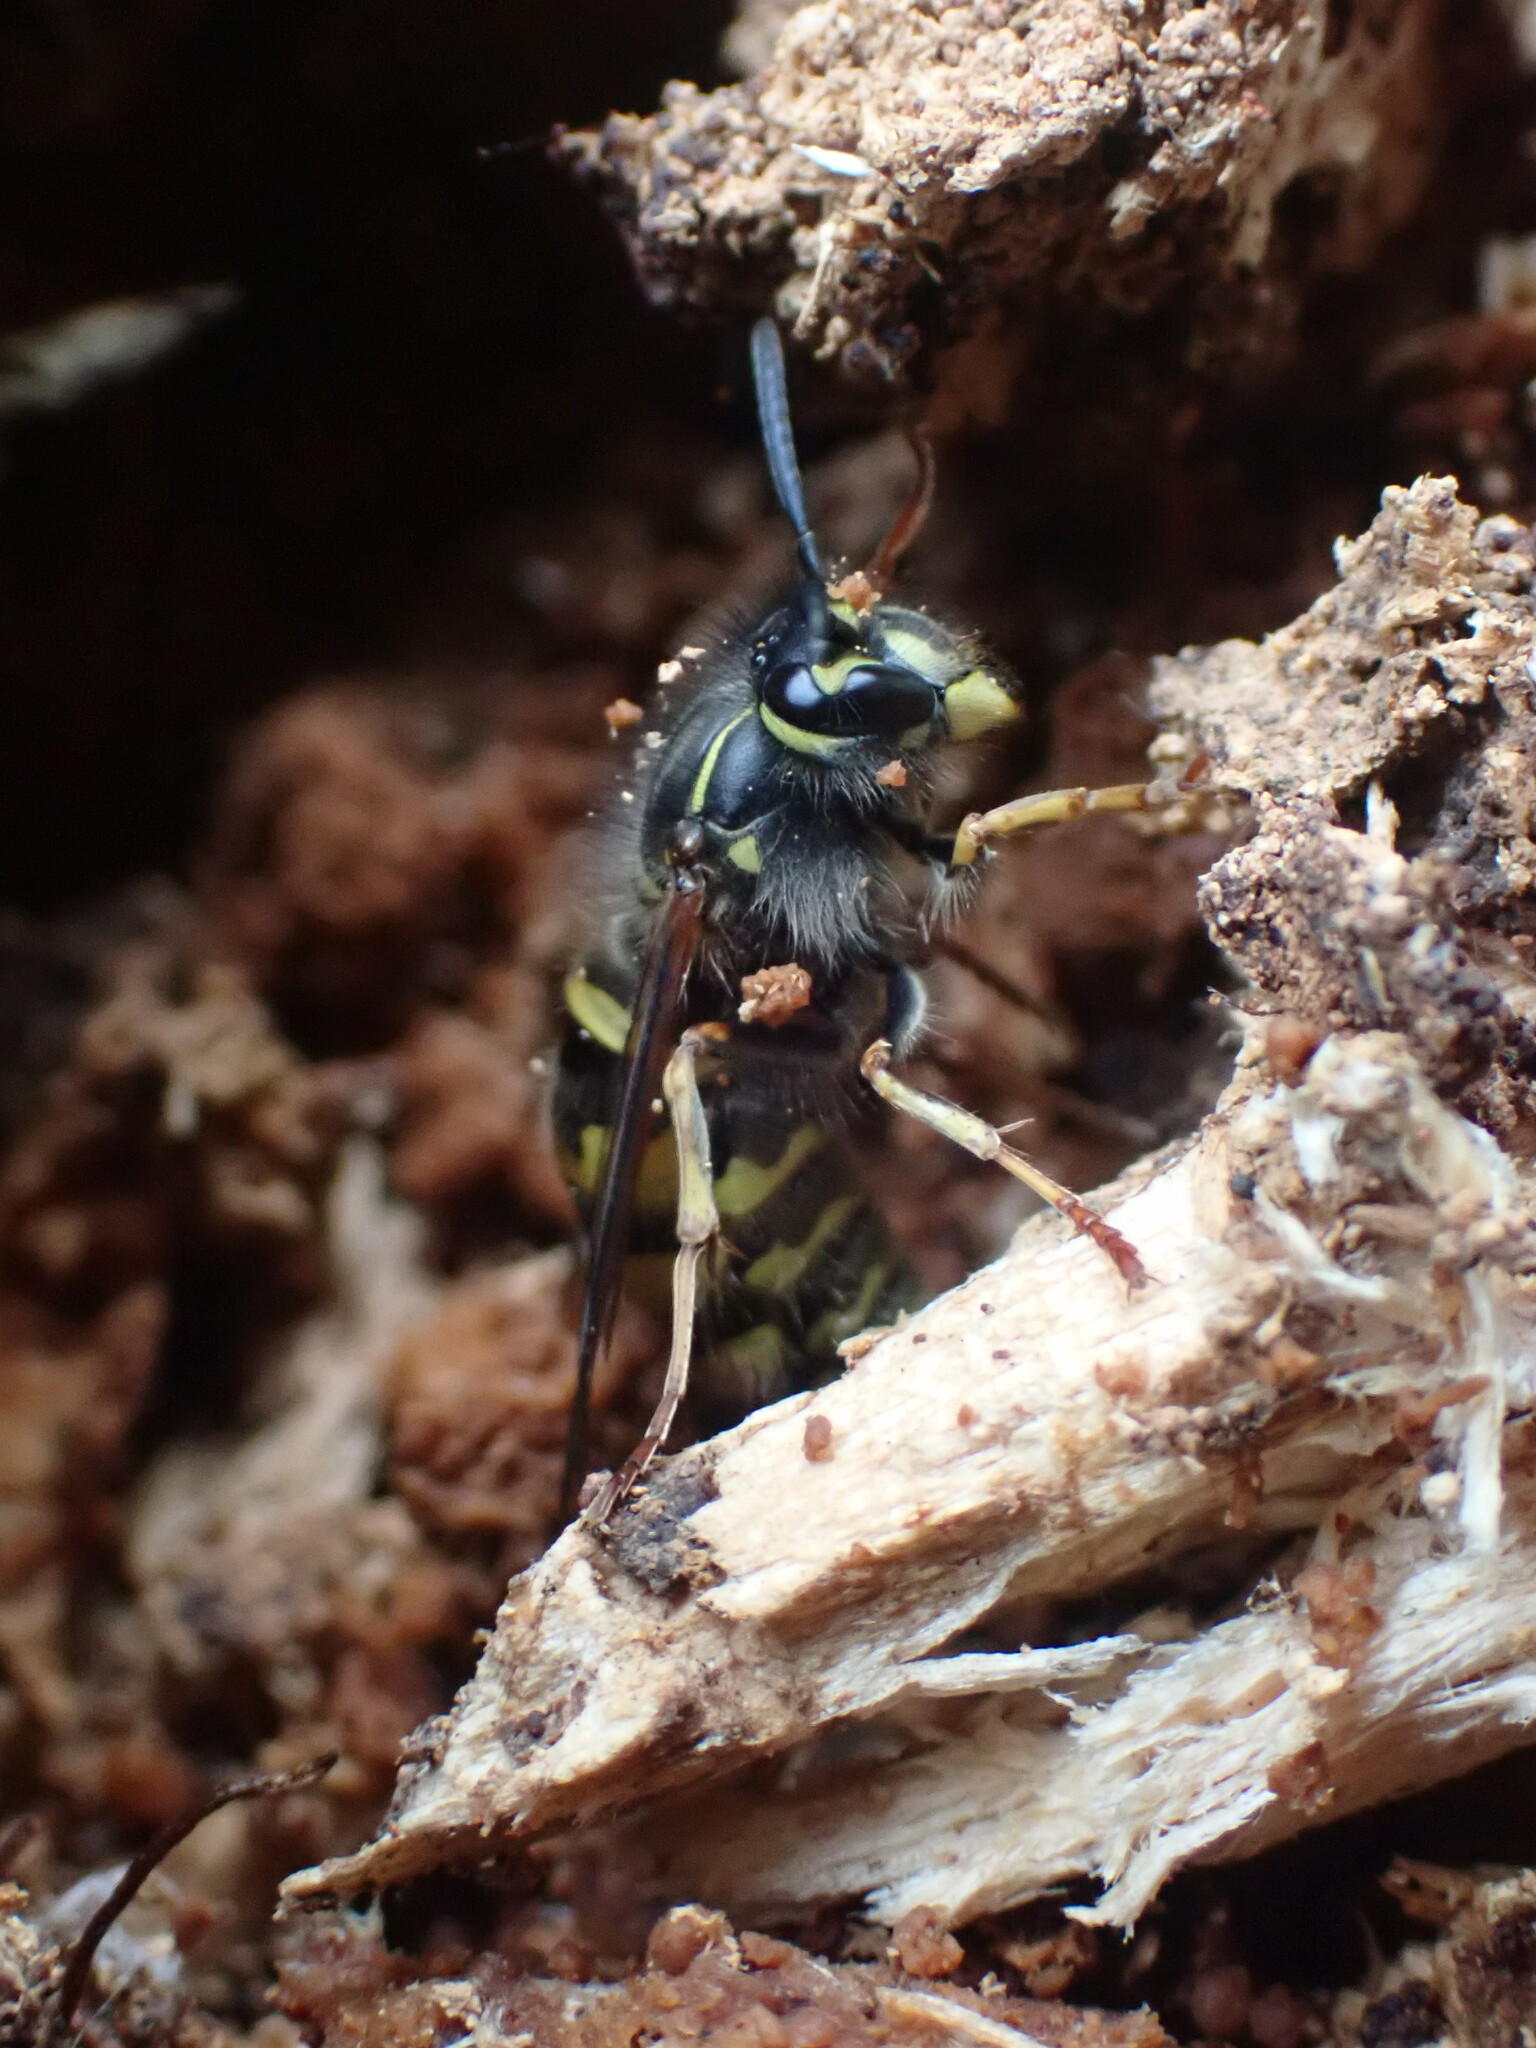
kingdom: Animalia
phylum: Arthropoda
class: Insecta
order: Hymenoptera
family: Vespidae
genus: Vespula
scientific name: Vespula vulgaris
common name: Common wasp
